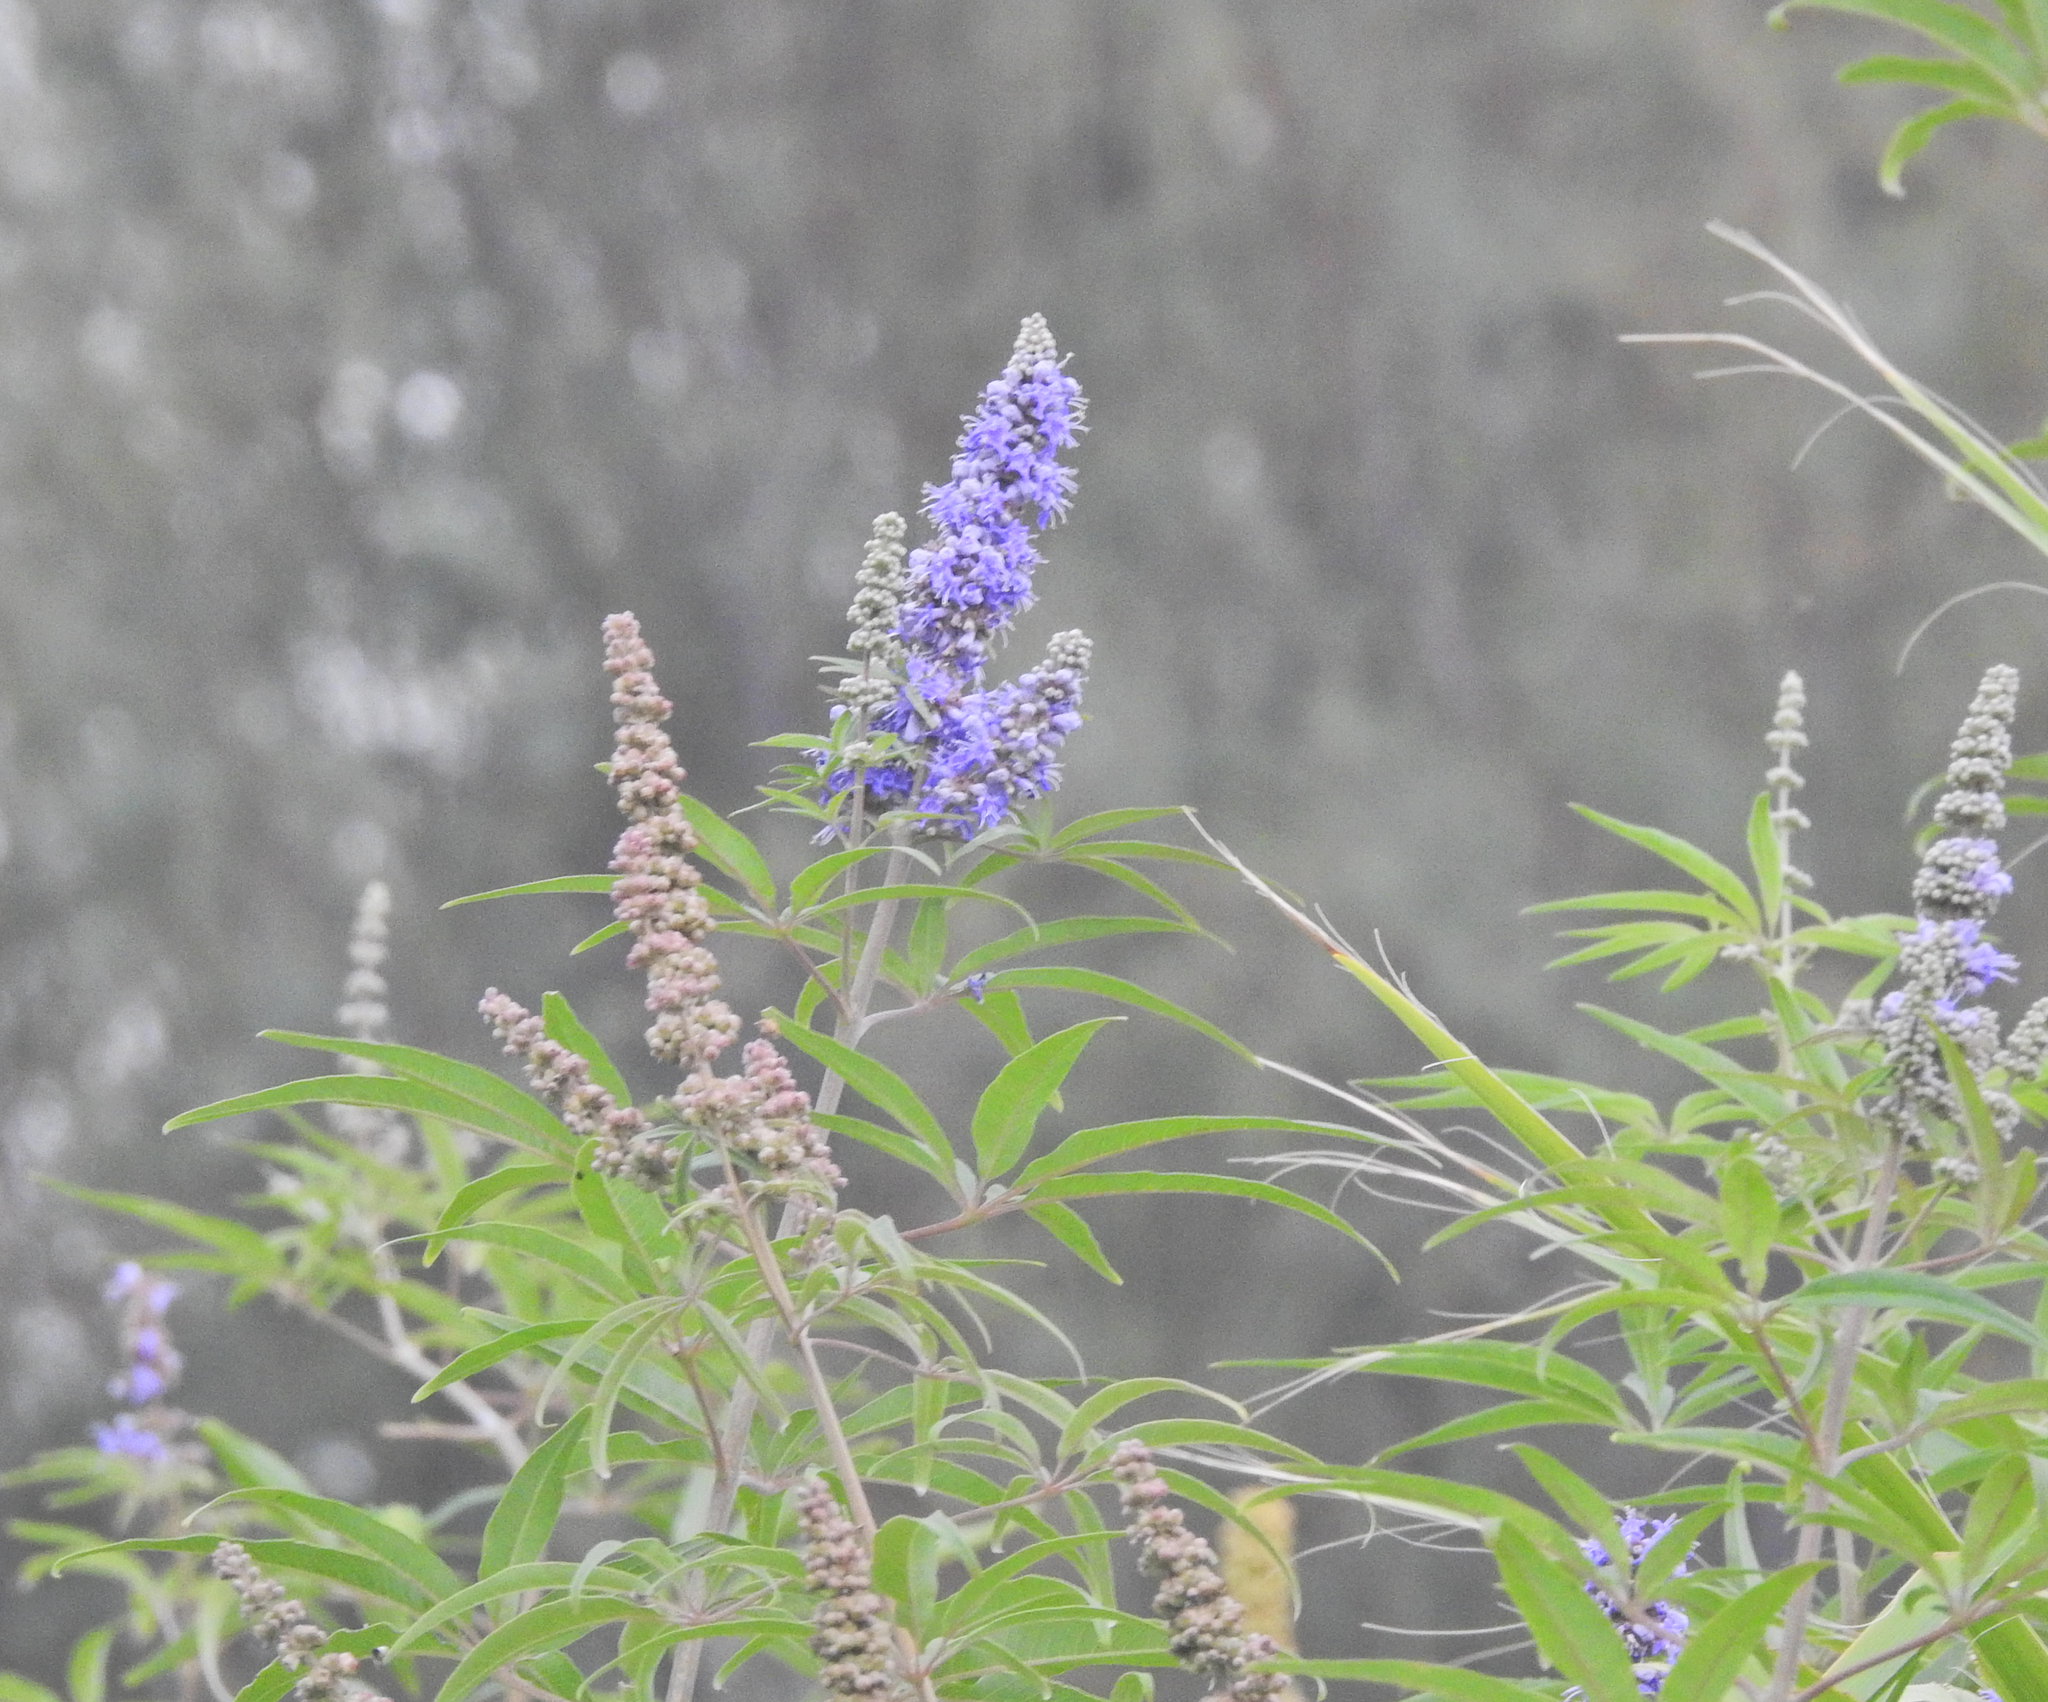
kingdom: Plantae
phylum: Tracheophyta
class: Magnoliopsida
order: Lamiales
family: Lamiaceae
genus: Vitex
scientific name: Vitex agnus-castus
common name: Chasteberry
